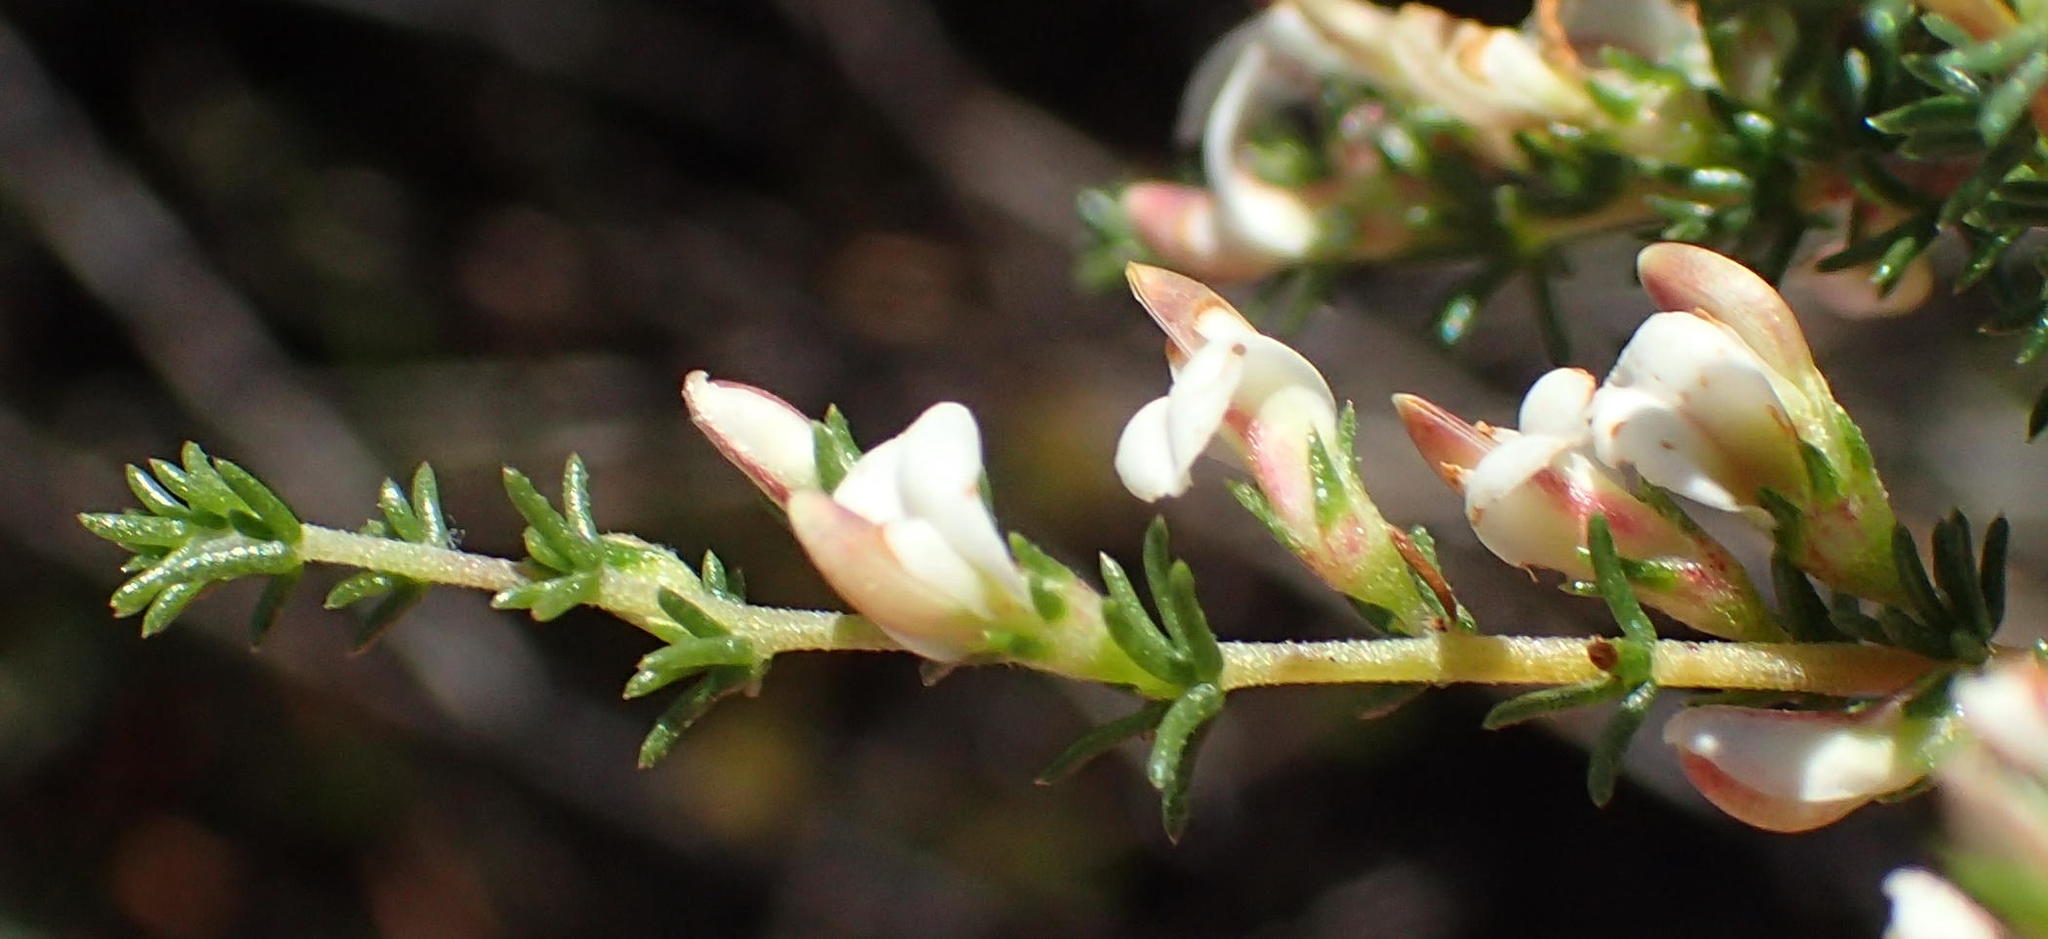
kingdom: Plantae
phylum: Tracheophyta
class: Magnoliopsida
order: Fabales
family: Fabaceae
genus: Aspalathus
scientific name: Aspalathus hispida
